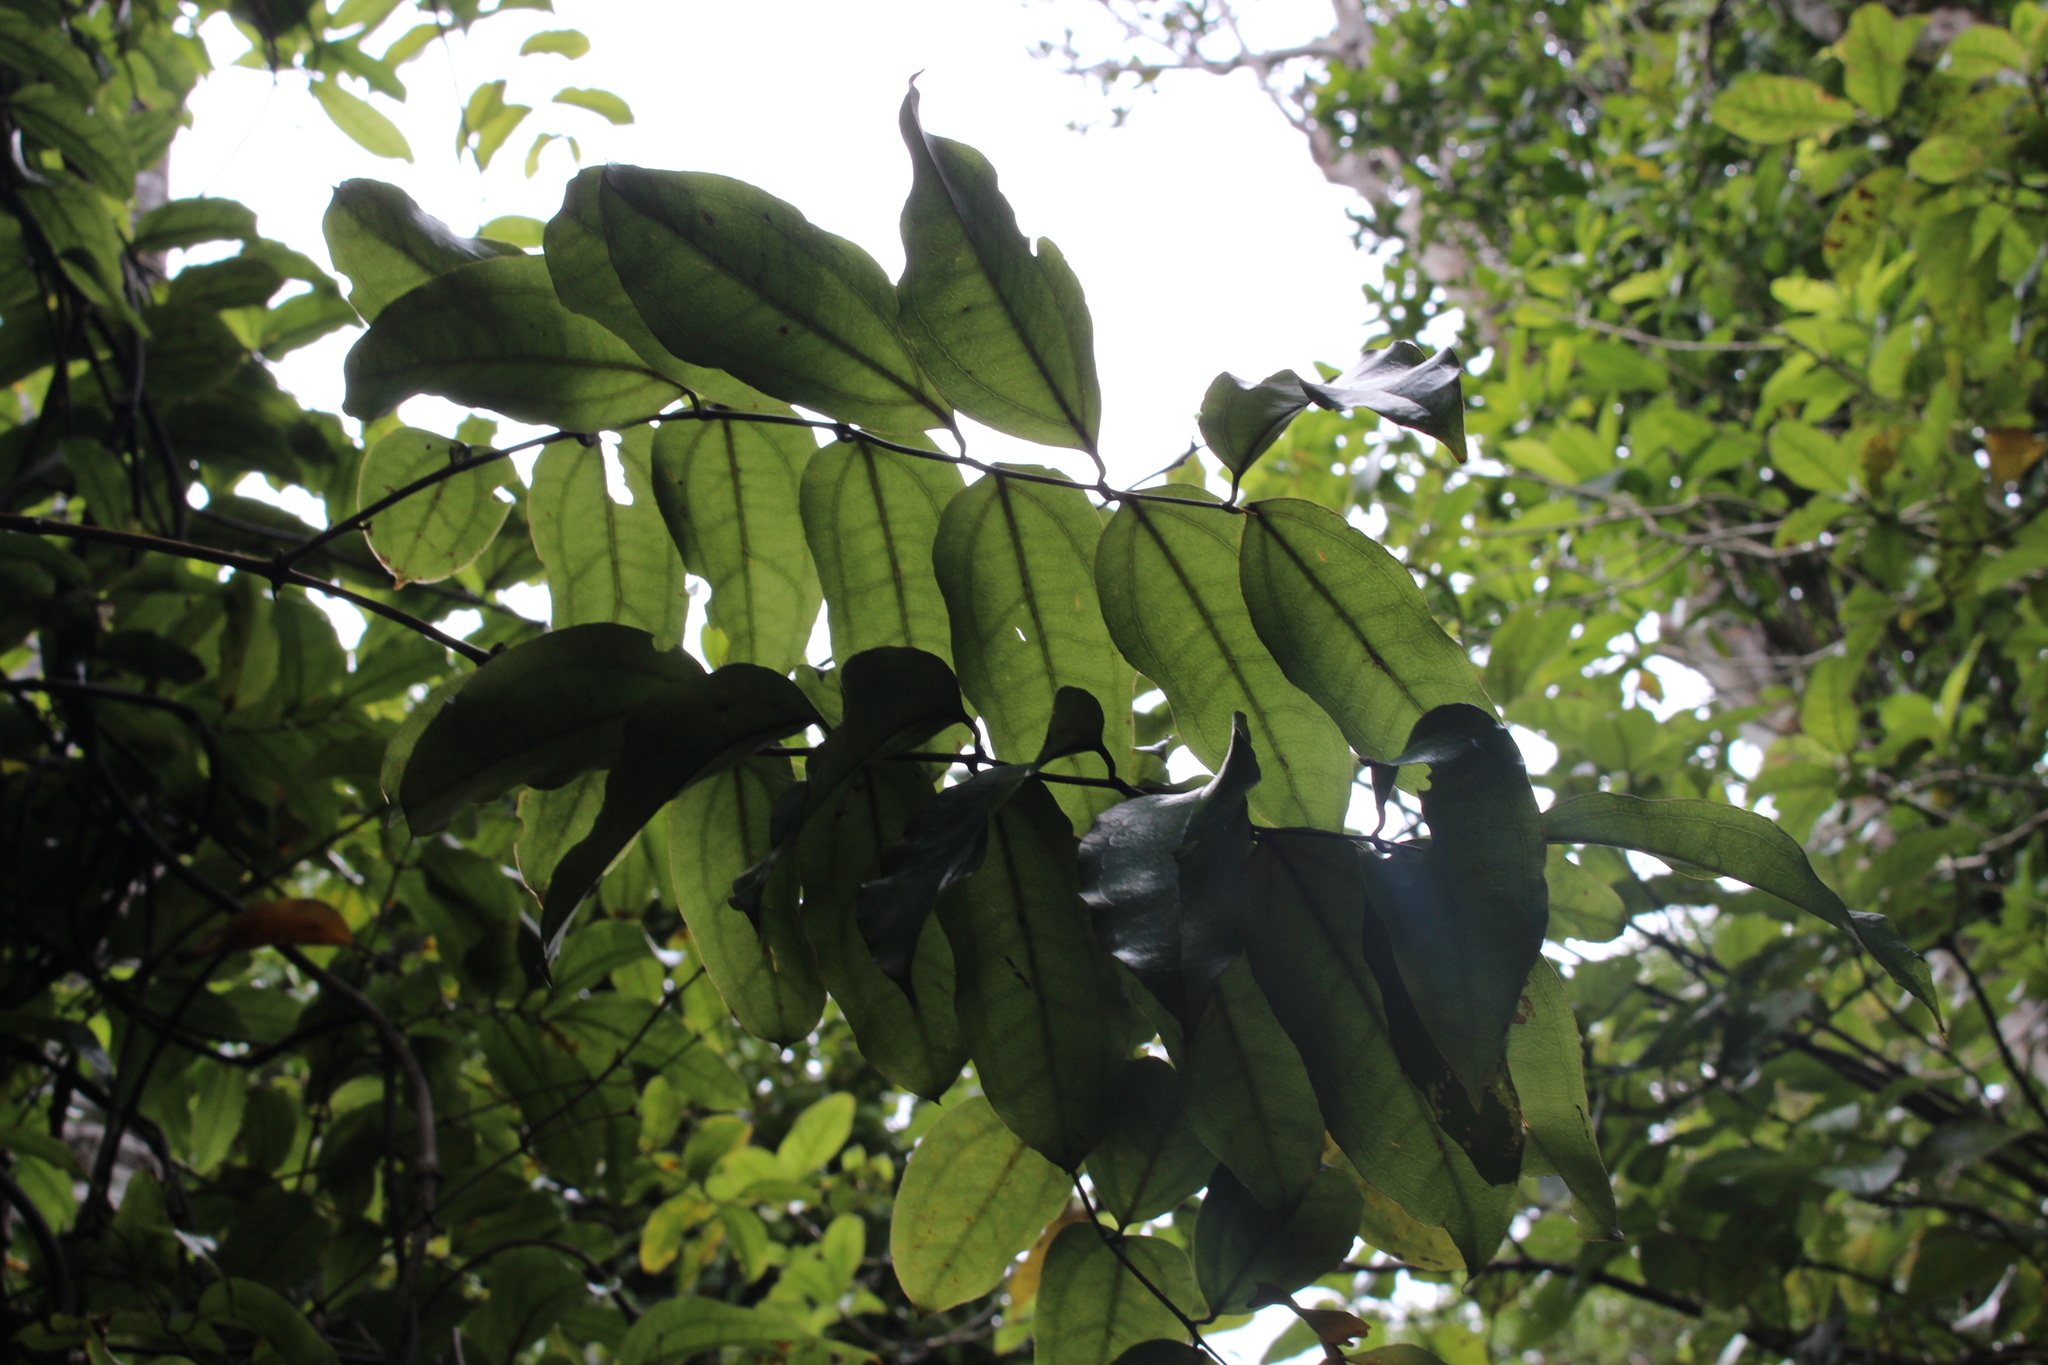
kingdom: Plantae
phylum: Tracheophyta
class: Liliopsida
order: Liliales
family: Ripogonaceae
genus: Ripogonum
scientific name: Ripogonum scandens
